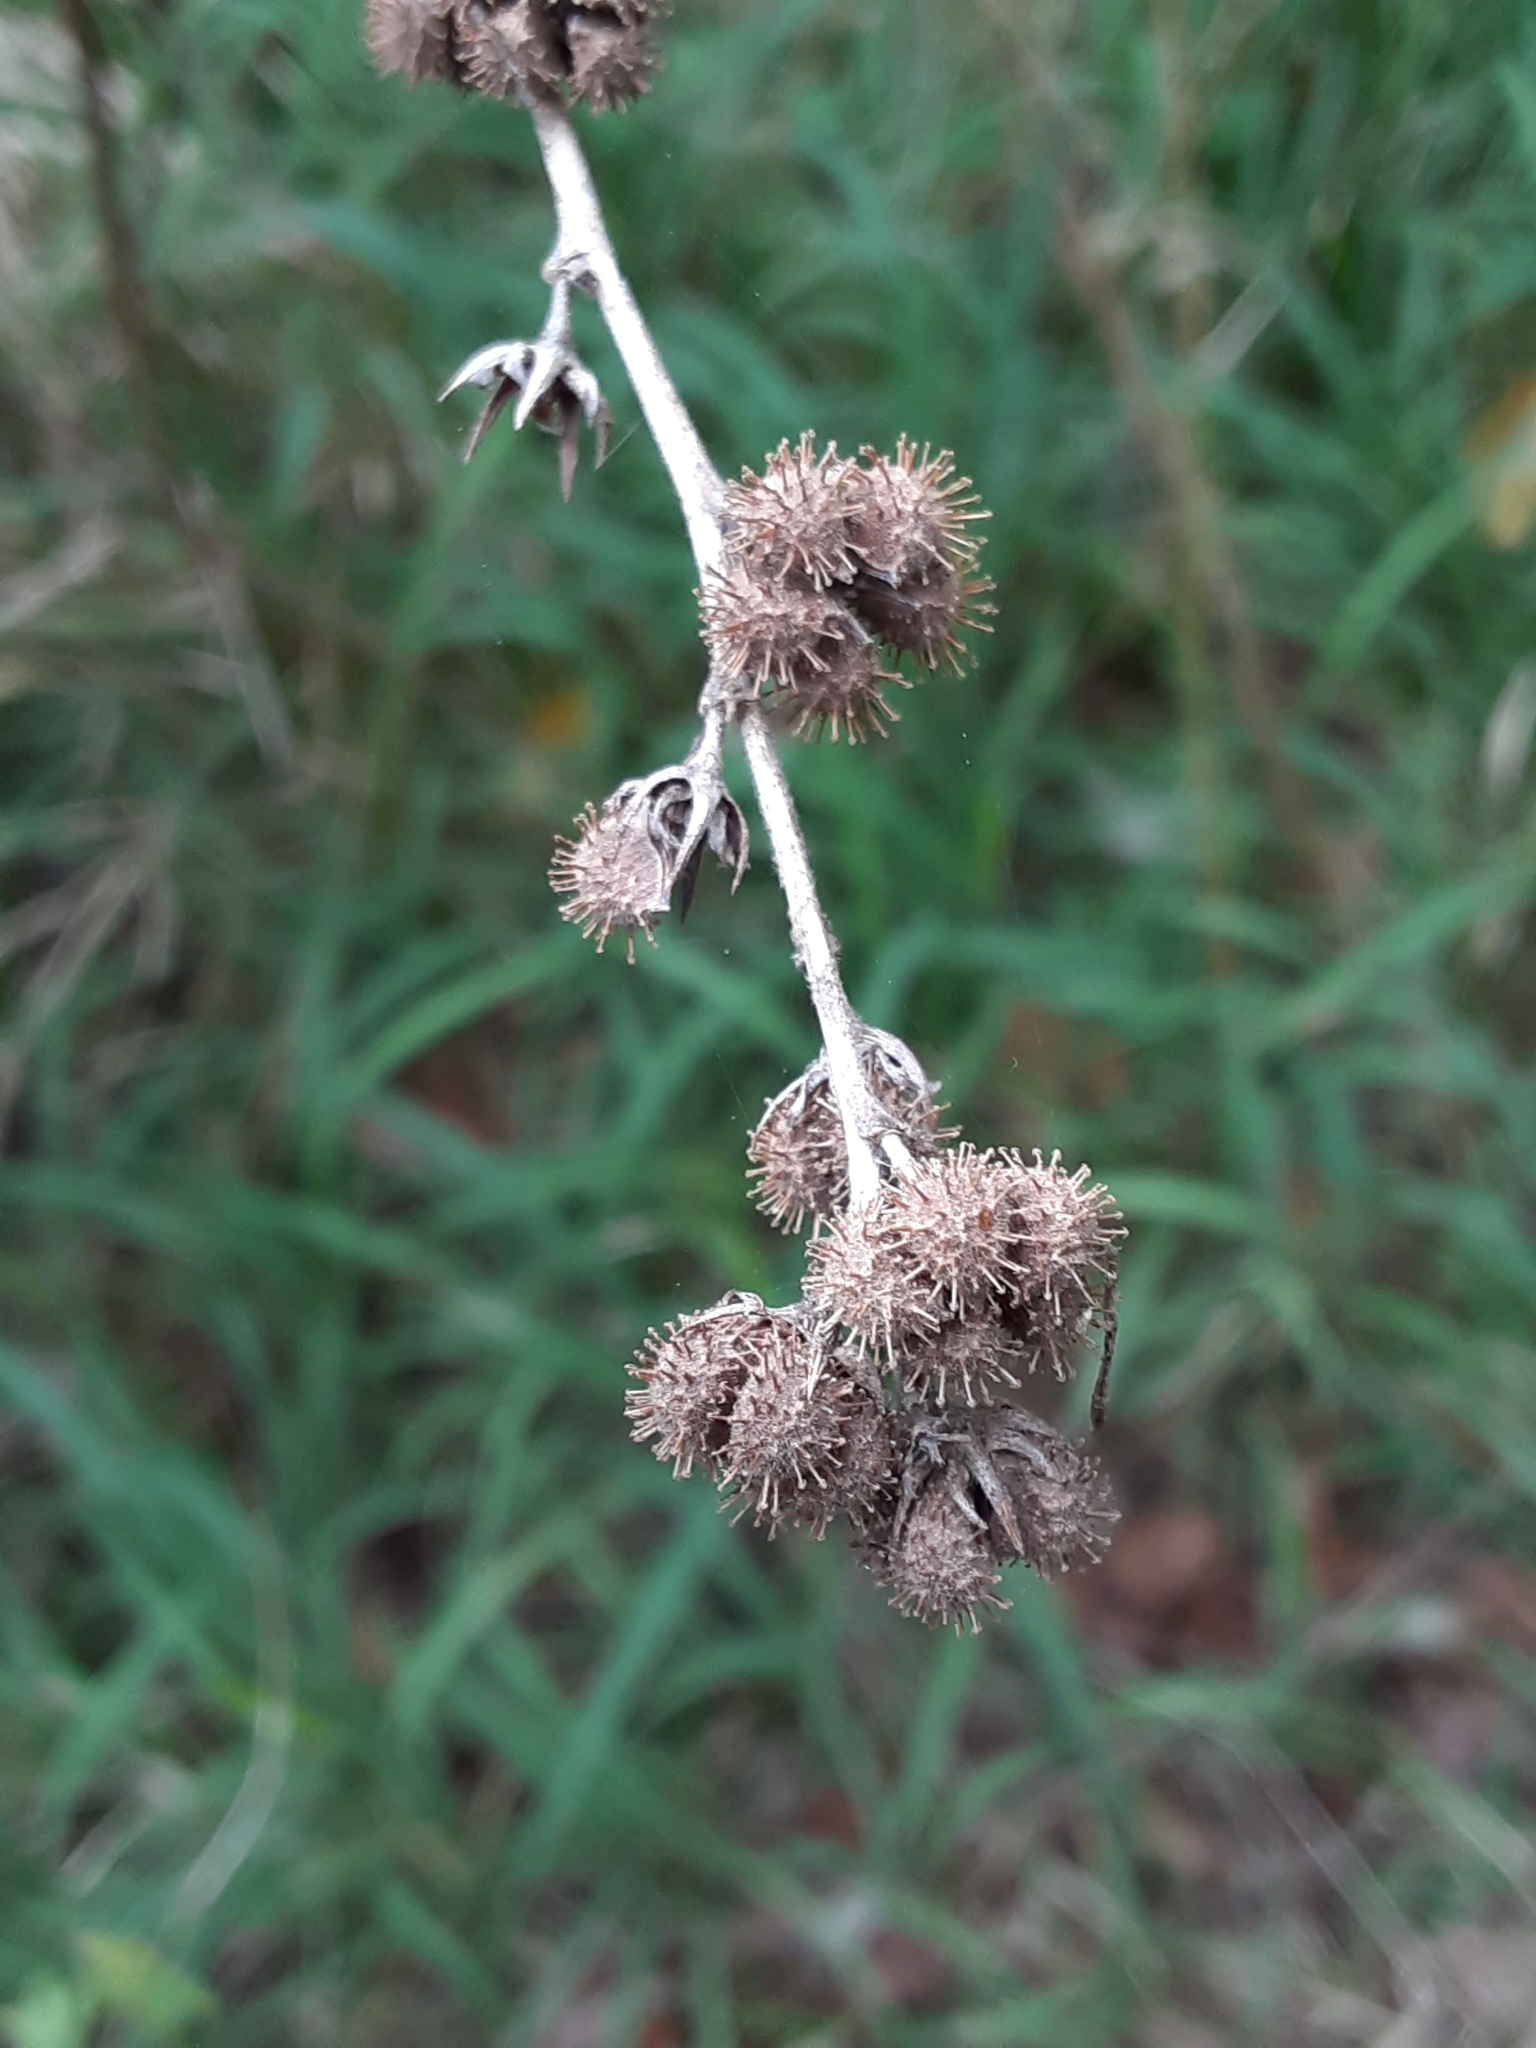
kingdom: Plantae
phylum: Tracheophyta
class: Magnoliopsida
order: Malvales
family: Malvaceae
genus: Urena
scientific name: Urena lobata
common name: Caesarweed
